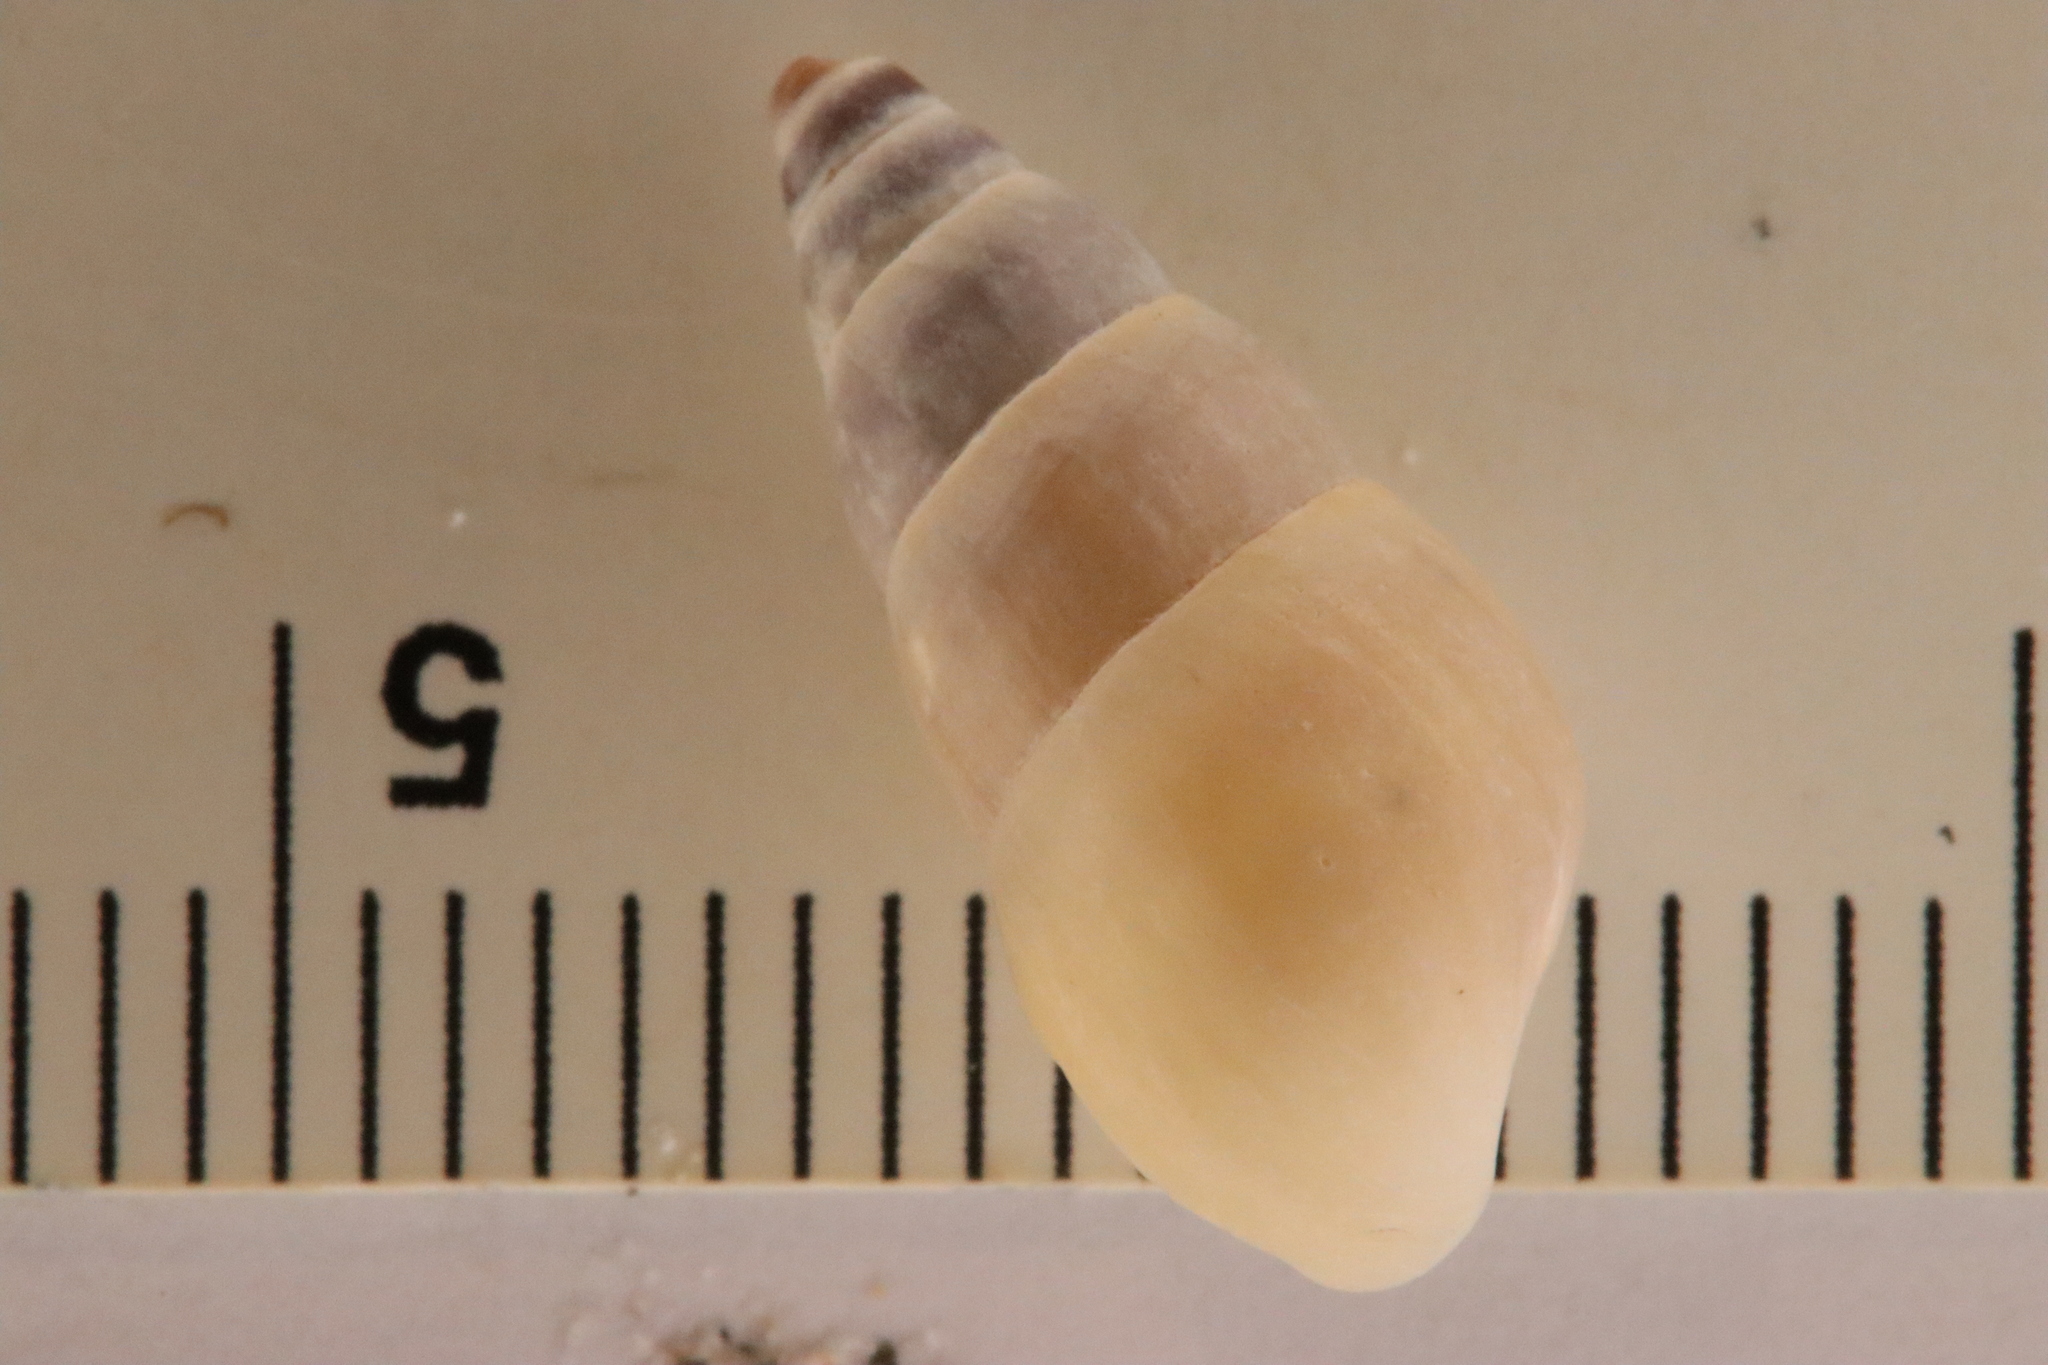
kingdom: Animalia
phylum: Mollusca
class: Gastropoda
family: Pleuroceridae
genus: Elimia
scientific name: Elimia livescens
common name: Liver elimia
